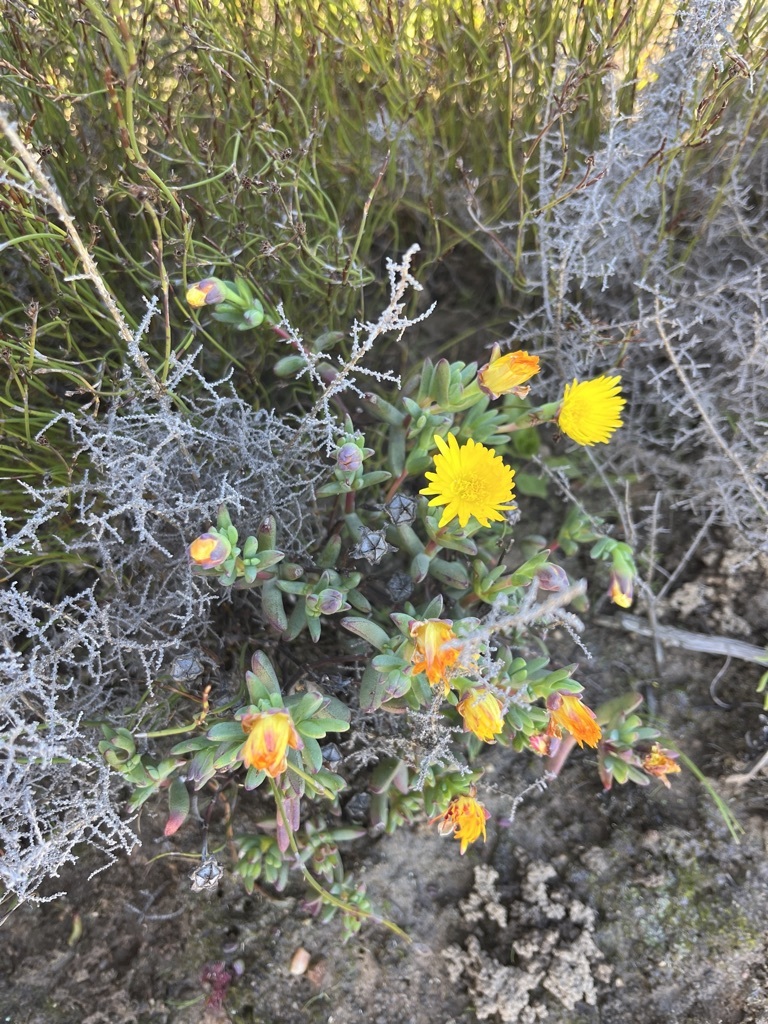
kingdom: Plantae
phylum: Tracheophyta
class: Magnoliopsida
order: Caryophyllales
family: Aizoaceae
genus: Lampranthus
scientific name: Lampranthus glaucus
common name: Noonflower
